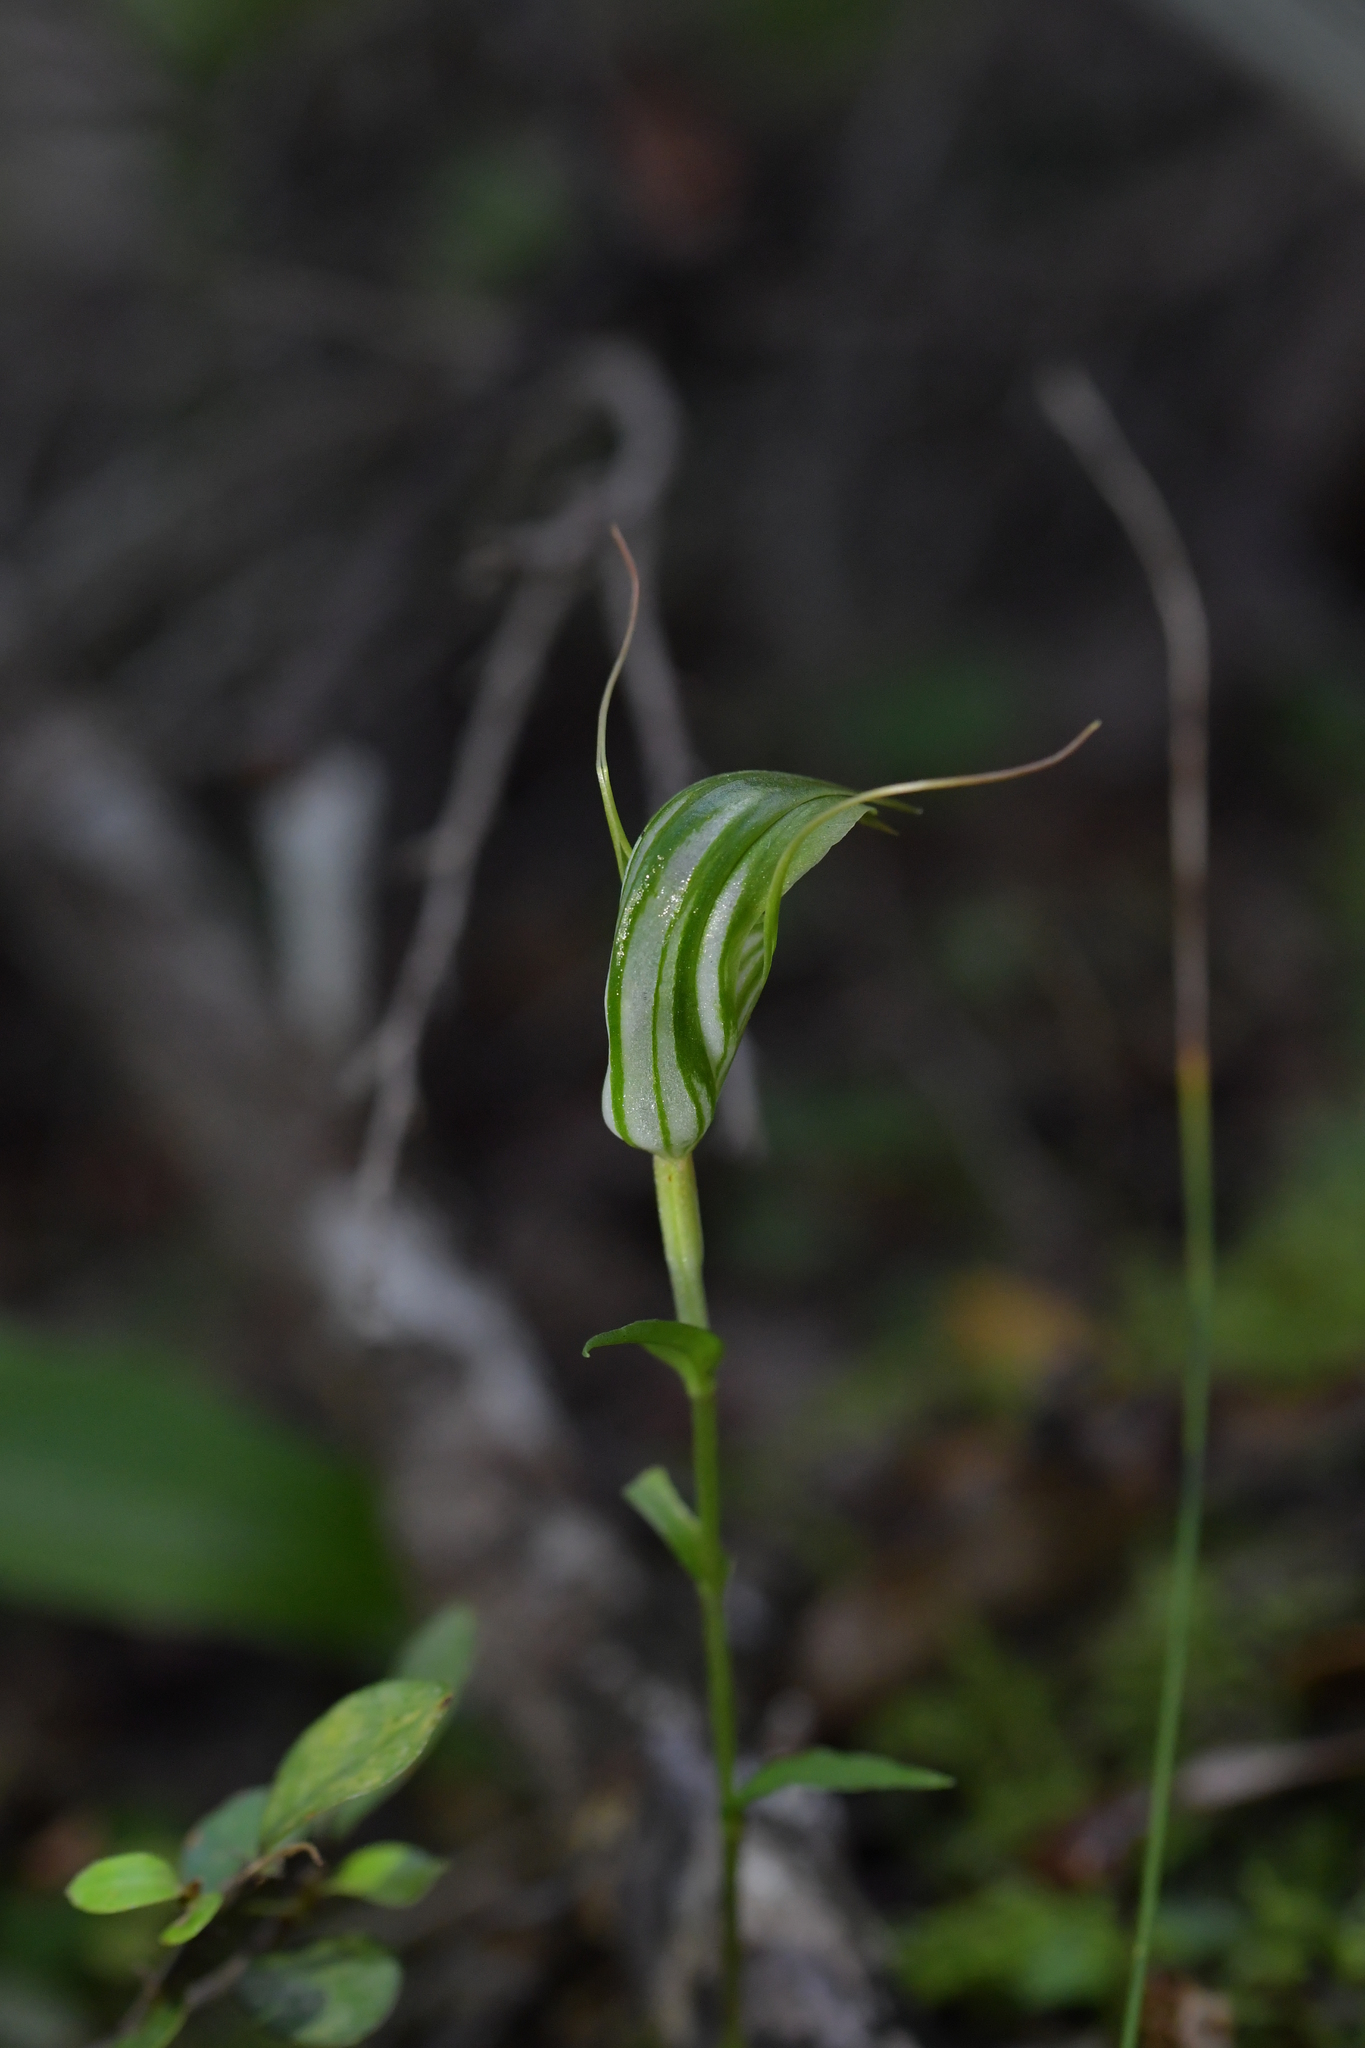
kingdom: Plantae
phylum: Tracheophyta
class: Liliopsida
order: Asparagales
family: Orchidaceae
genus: Pterostylis
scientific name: Pterostylis alobula
